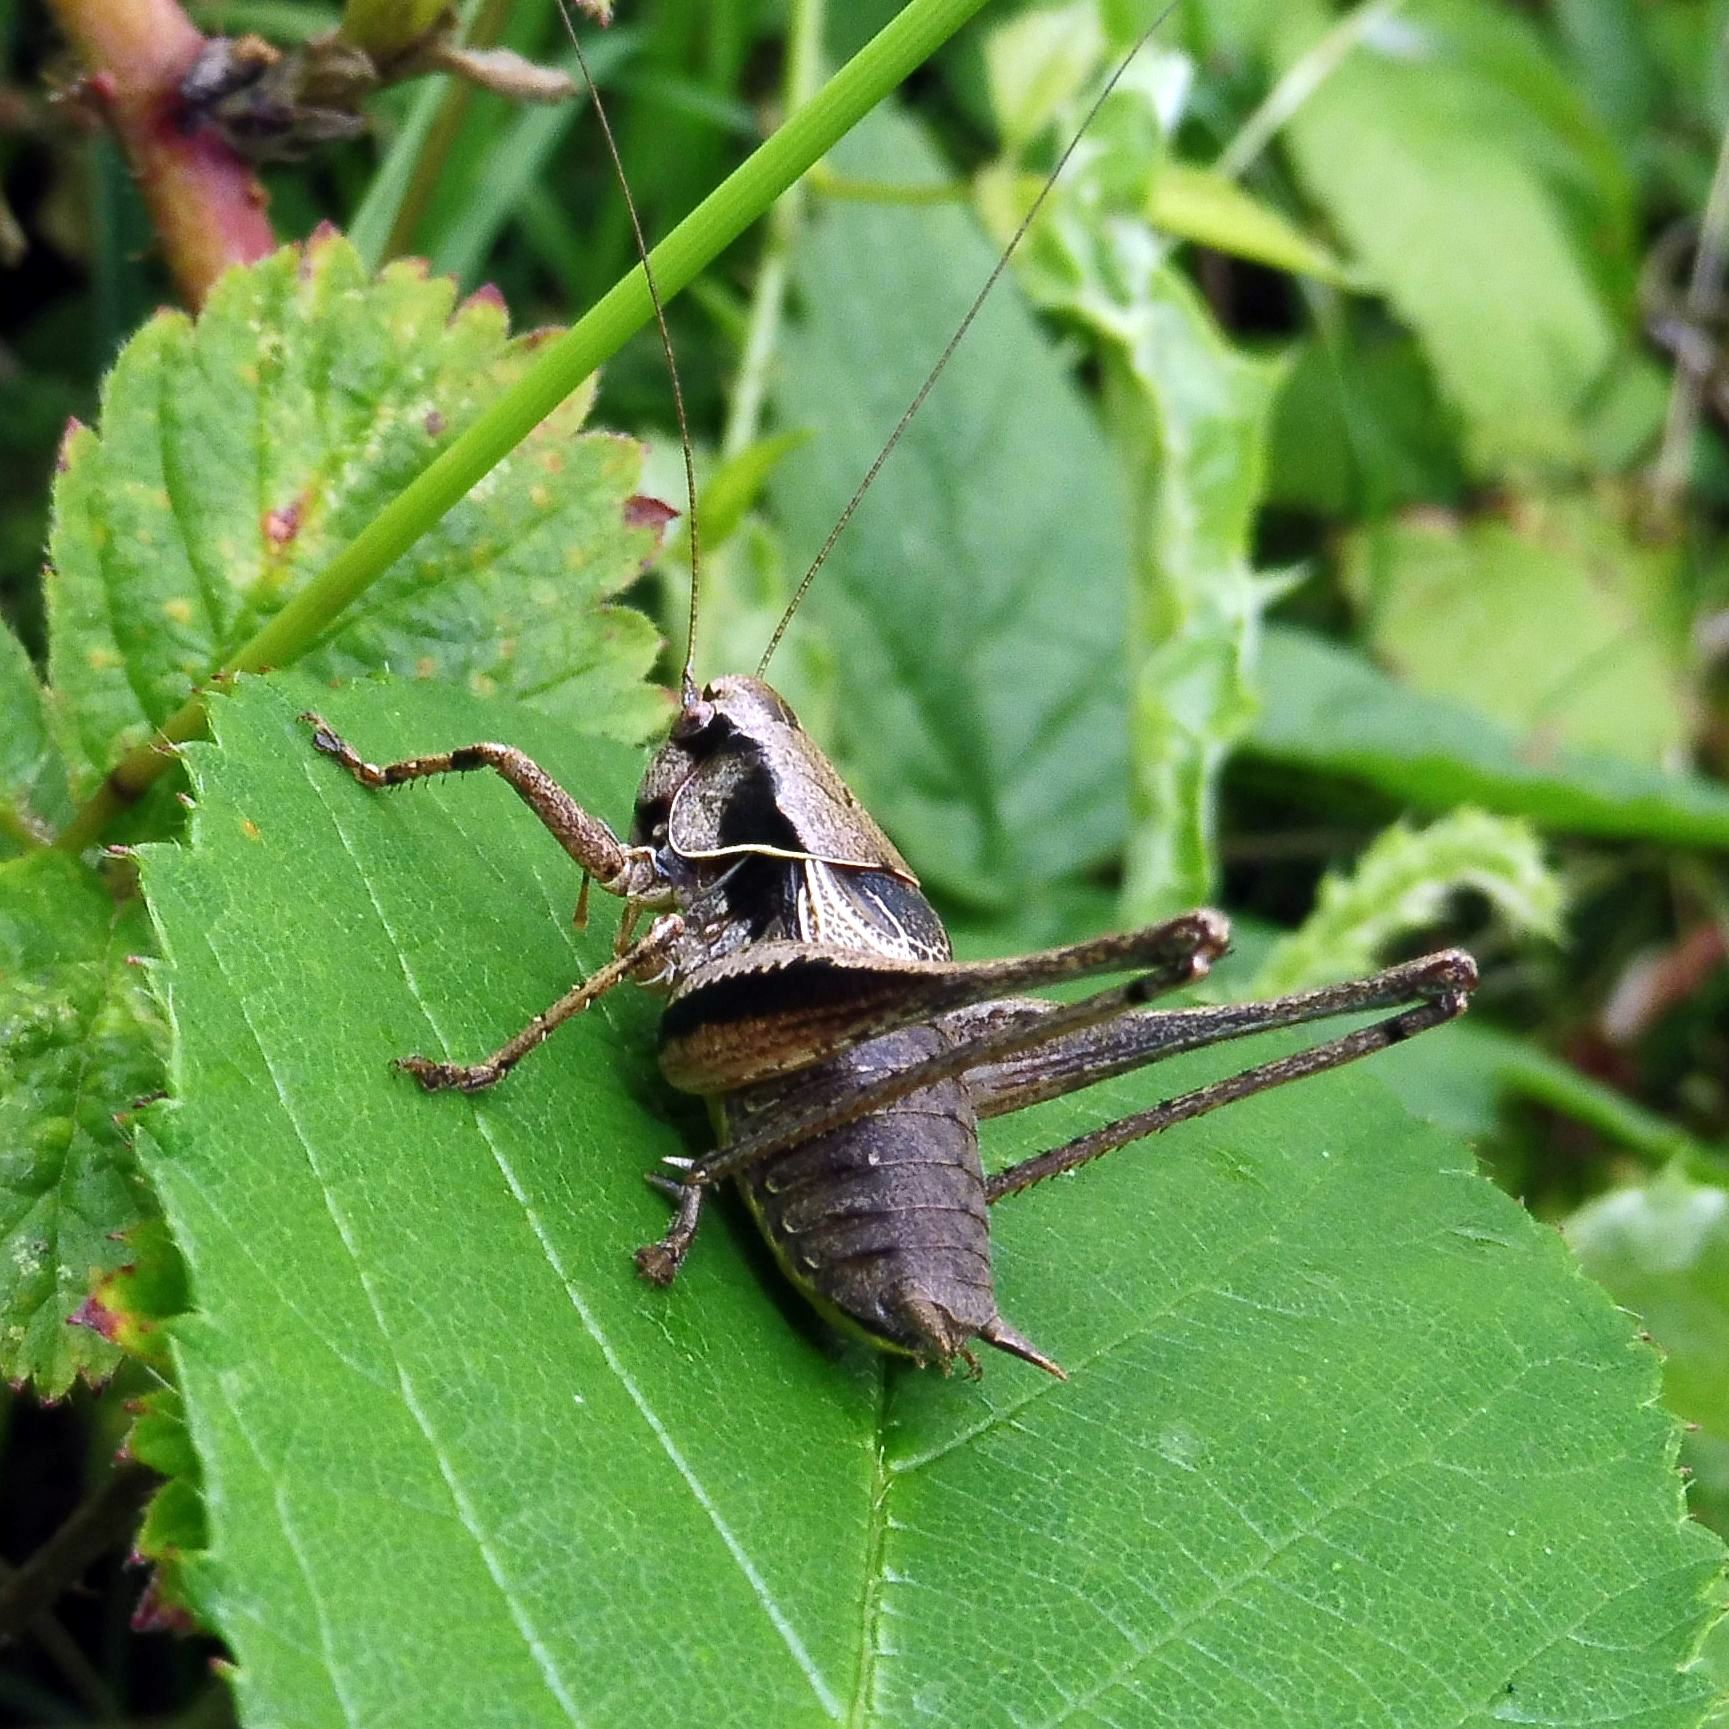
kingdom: Animalia
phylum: Arthropoda
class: Insecta
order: Orthoptera
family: Tettigoniidae
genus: Pholidoptera
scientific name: Pholidoptera griseoaptera
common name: Dark bush-cricket
